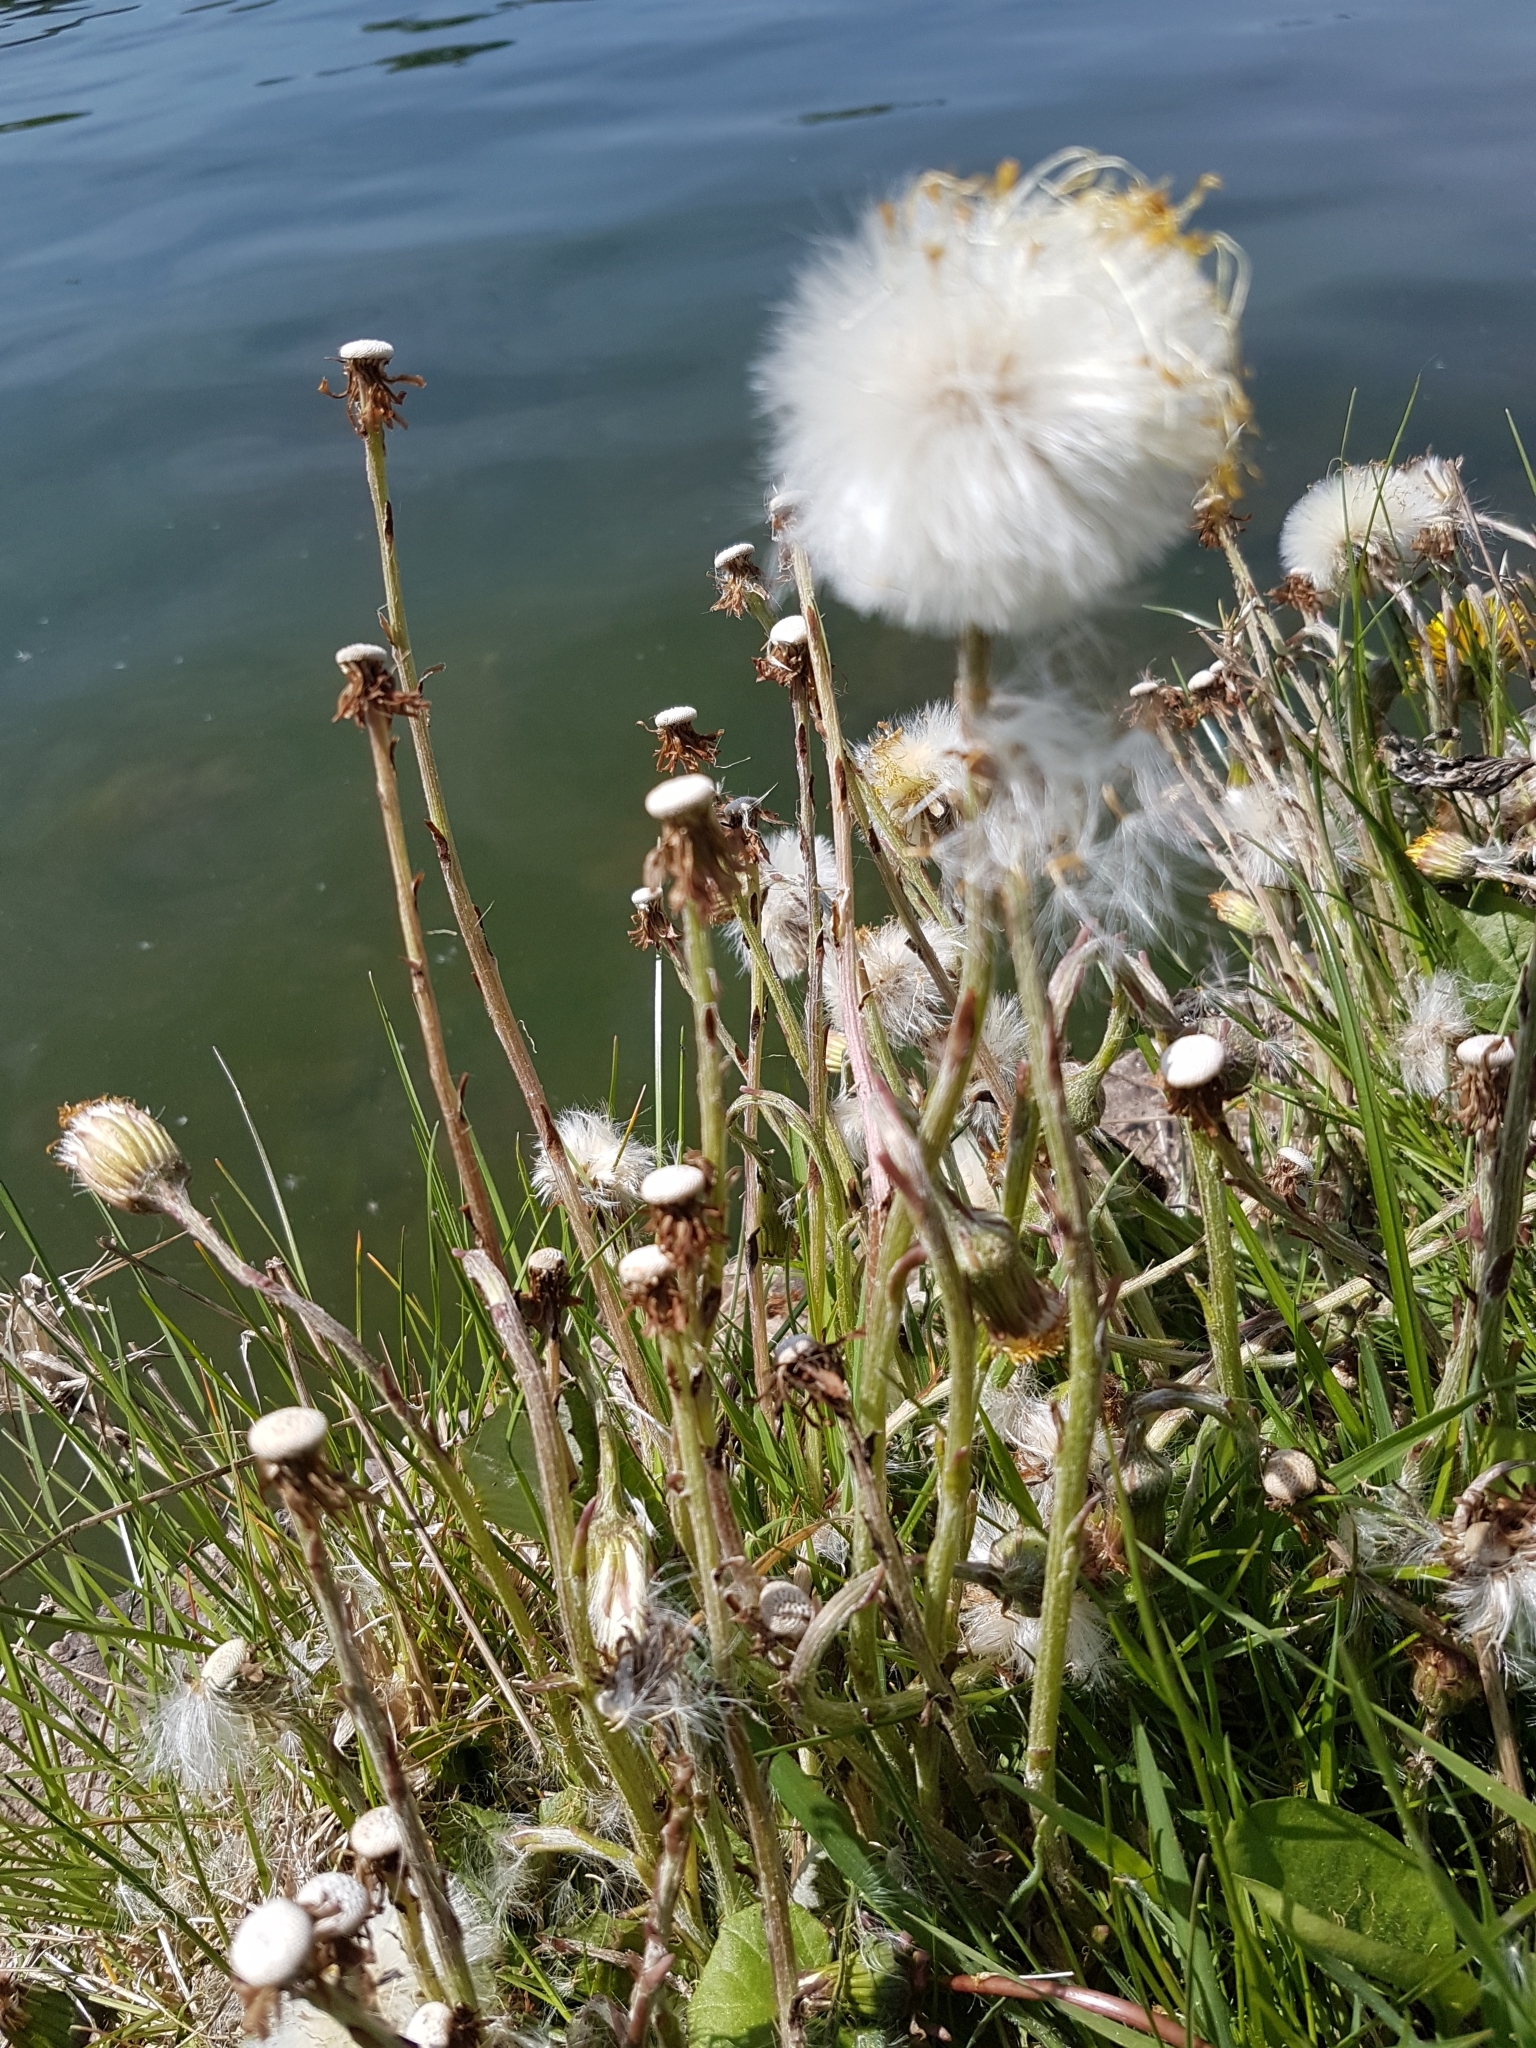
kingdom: Plantae
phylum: Tracheophyta
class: Magnoliopsida
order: Asterales
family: Asteraceae
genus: Tussilago
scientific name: Tussilago farfara
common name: Coltsfoot
